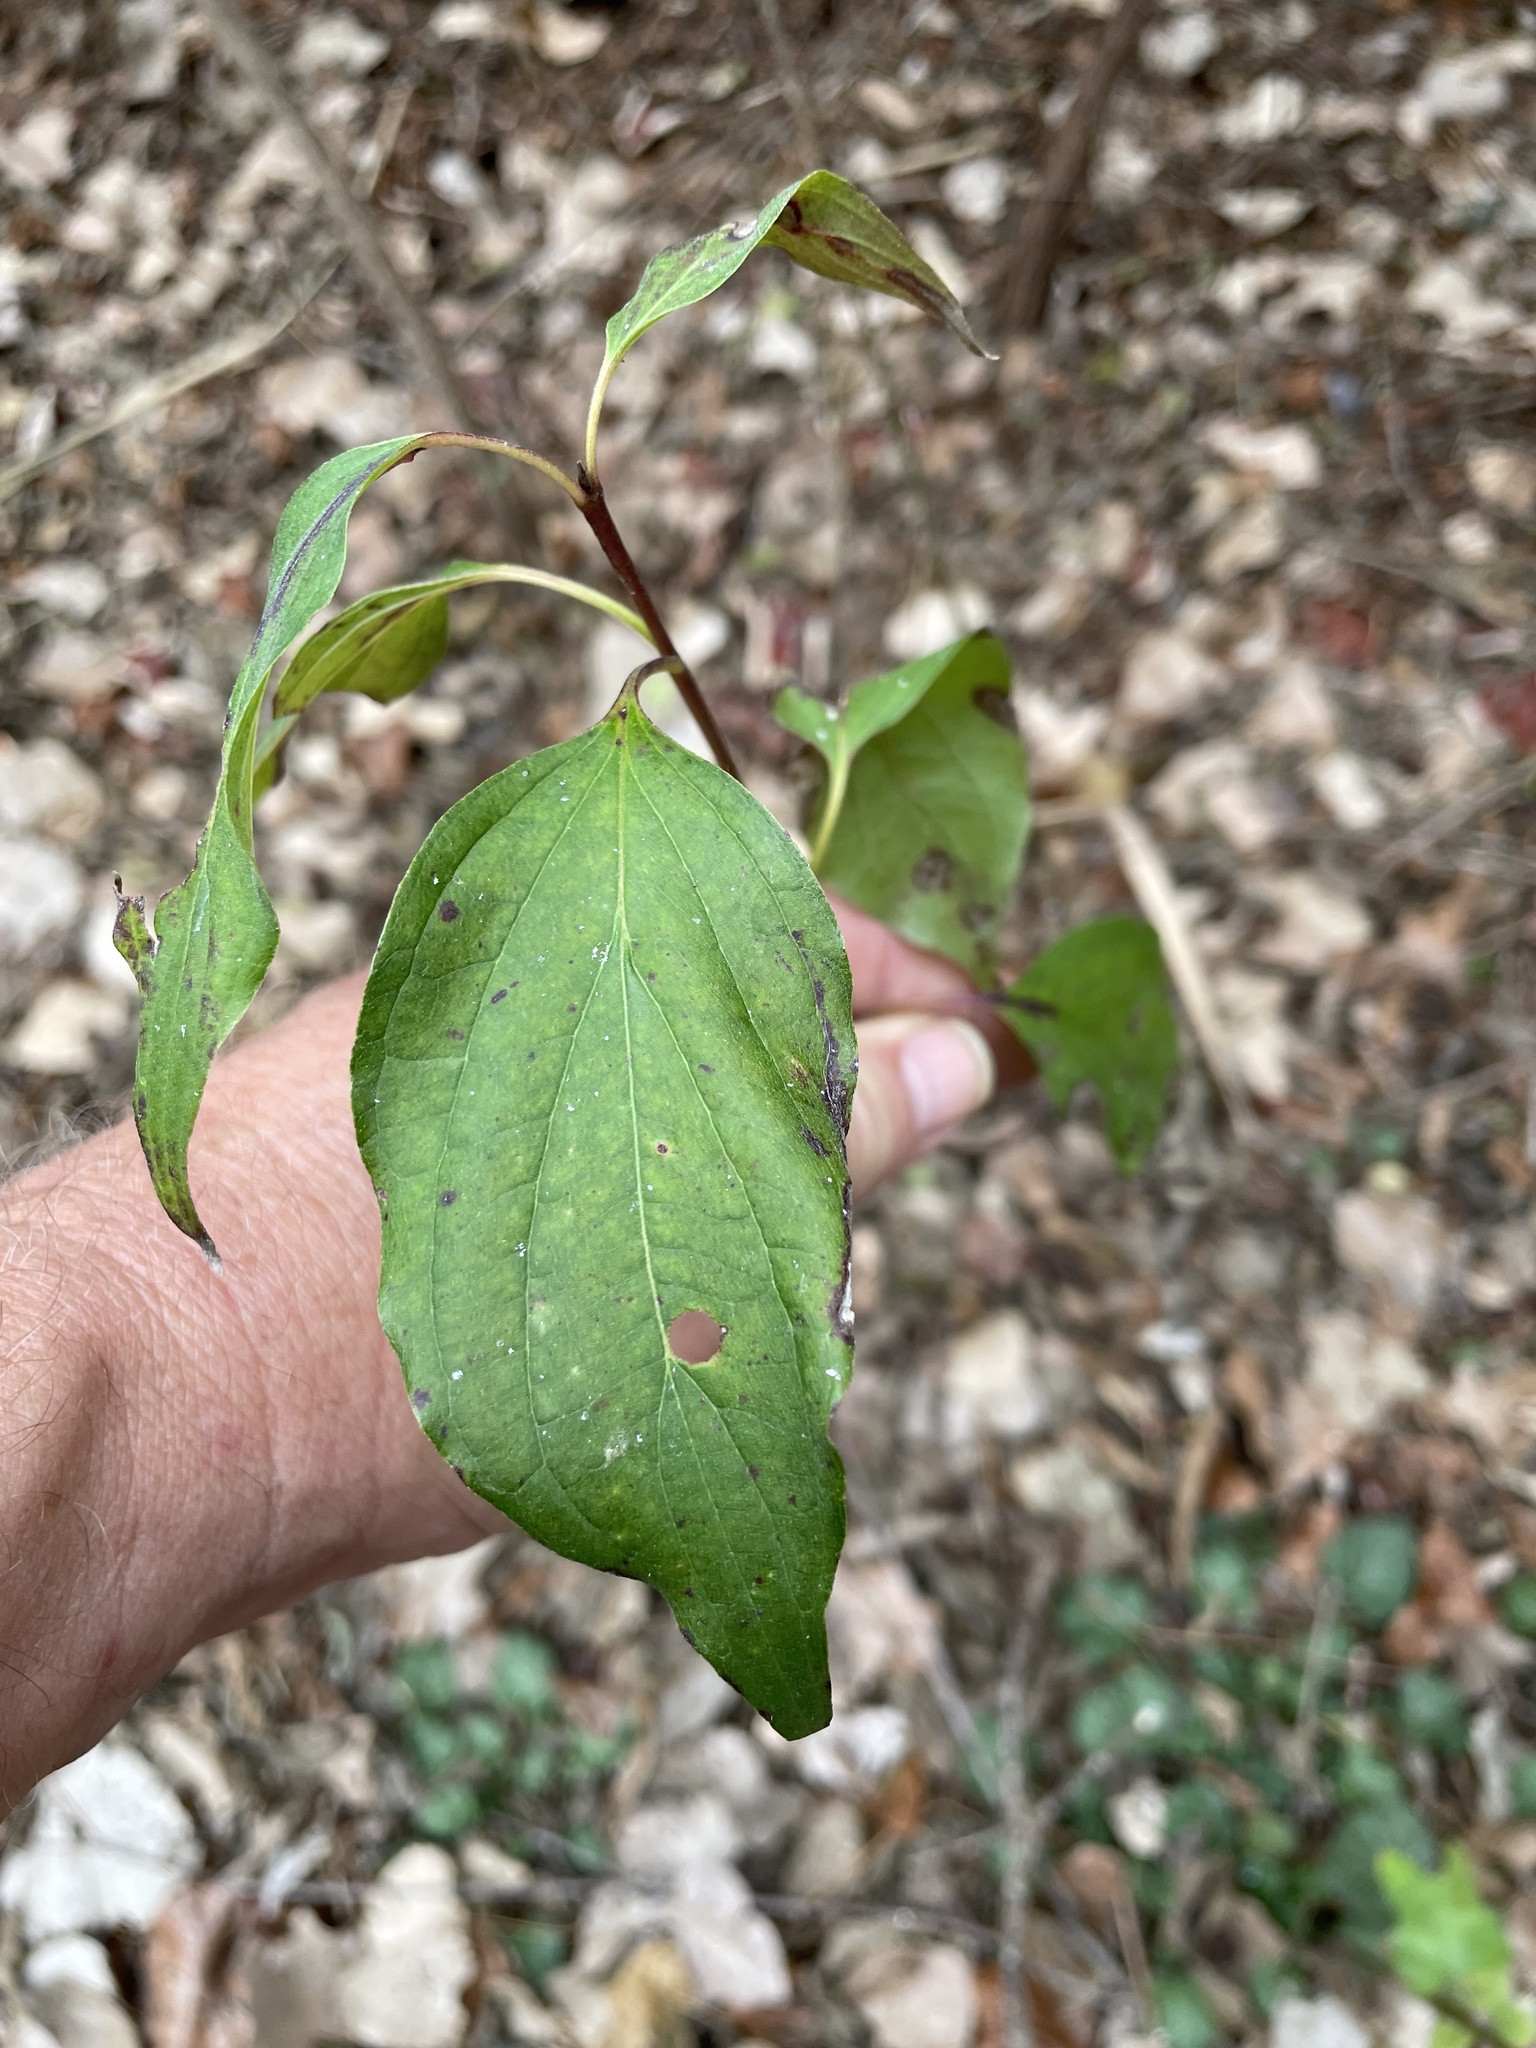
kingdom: Plantae
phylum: Tracheophyta
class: Magnoliopsida
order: Cornales
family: Cornaceae
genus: Cornus
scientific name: Cornus drummondii
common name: Rough-leaf dogwood
